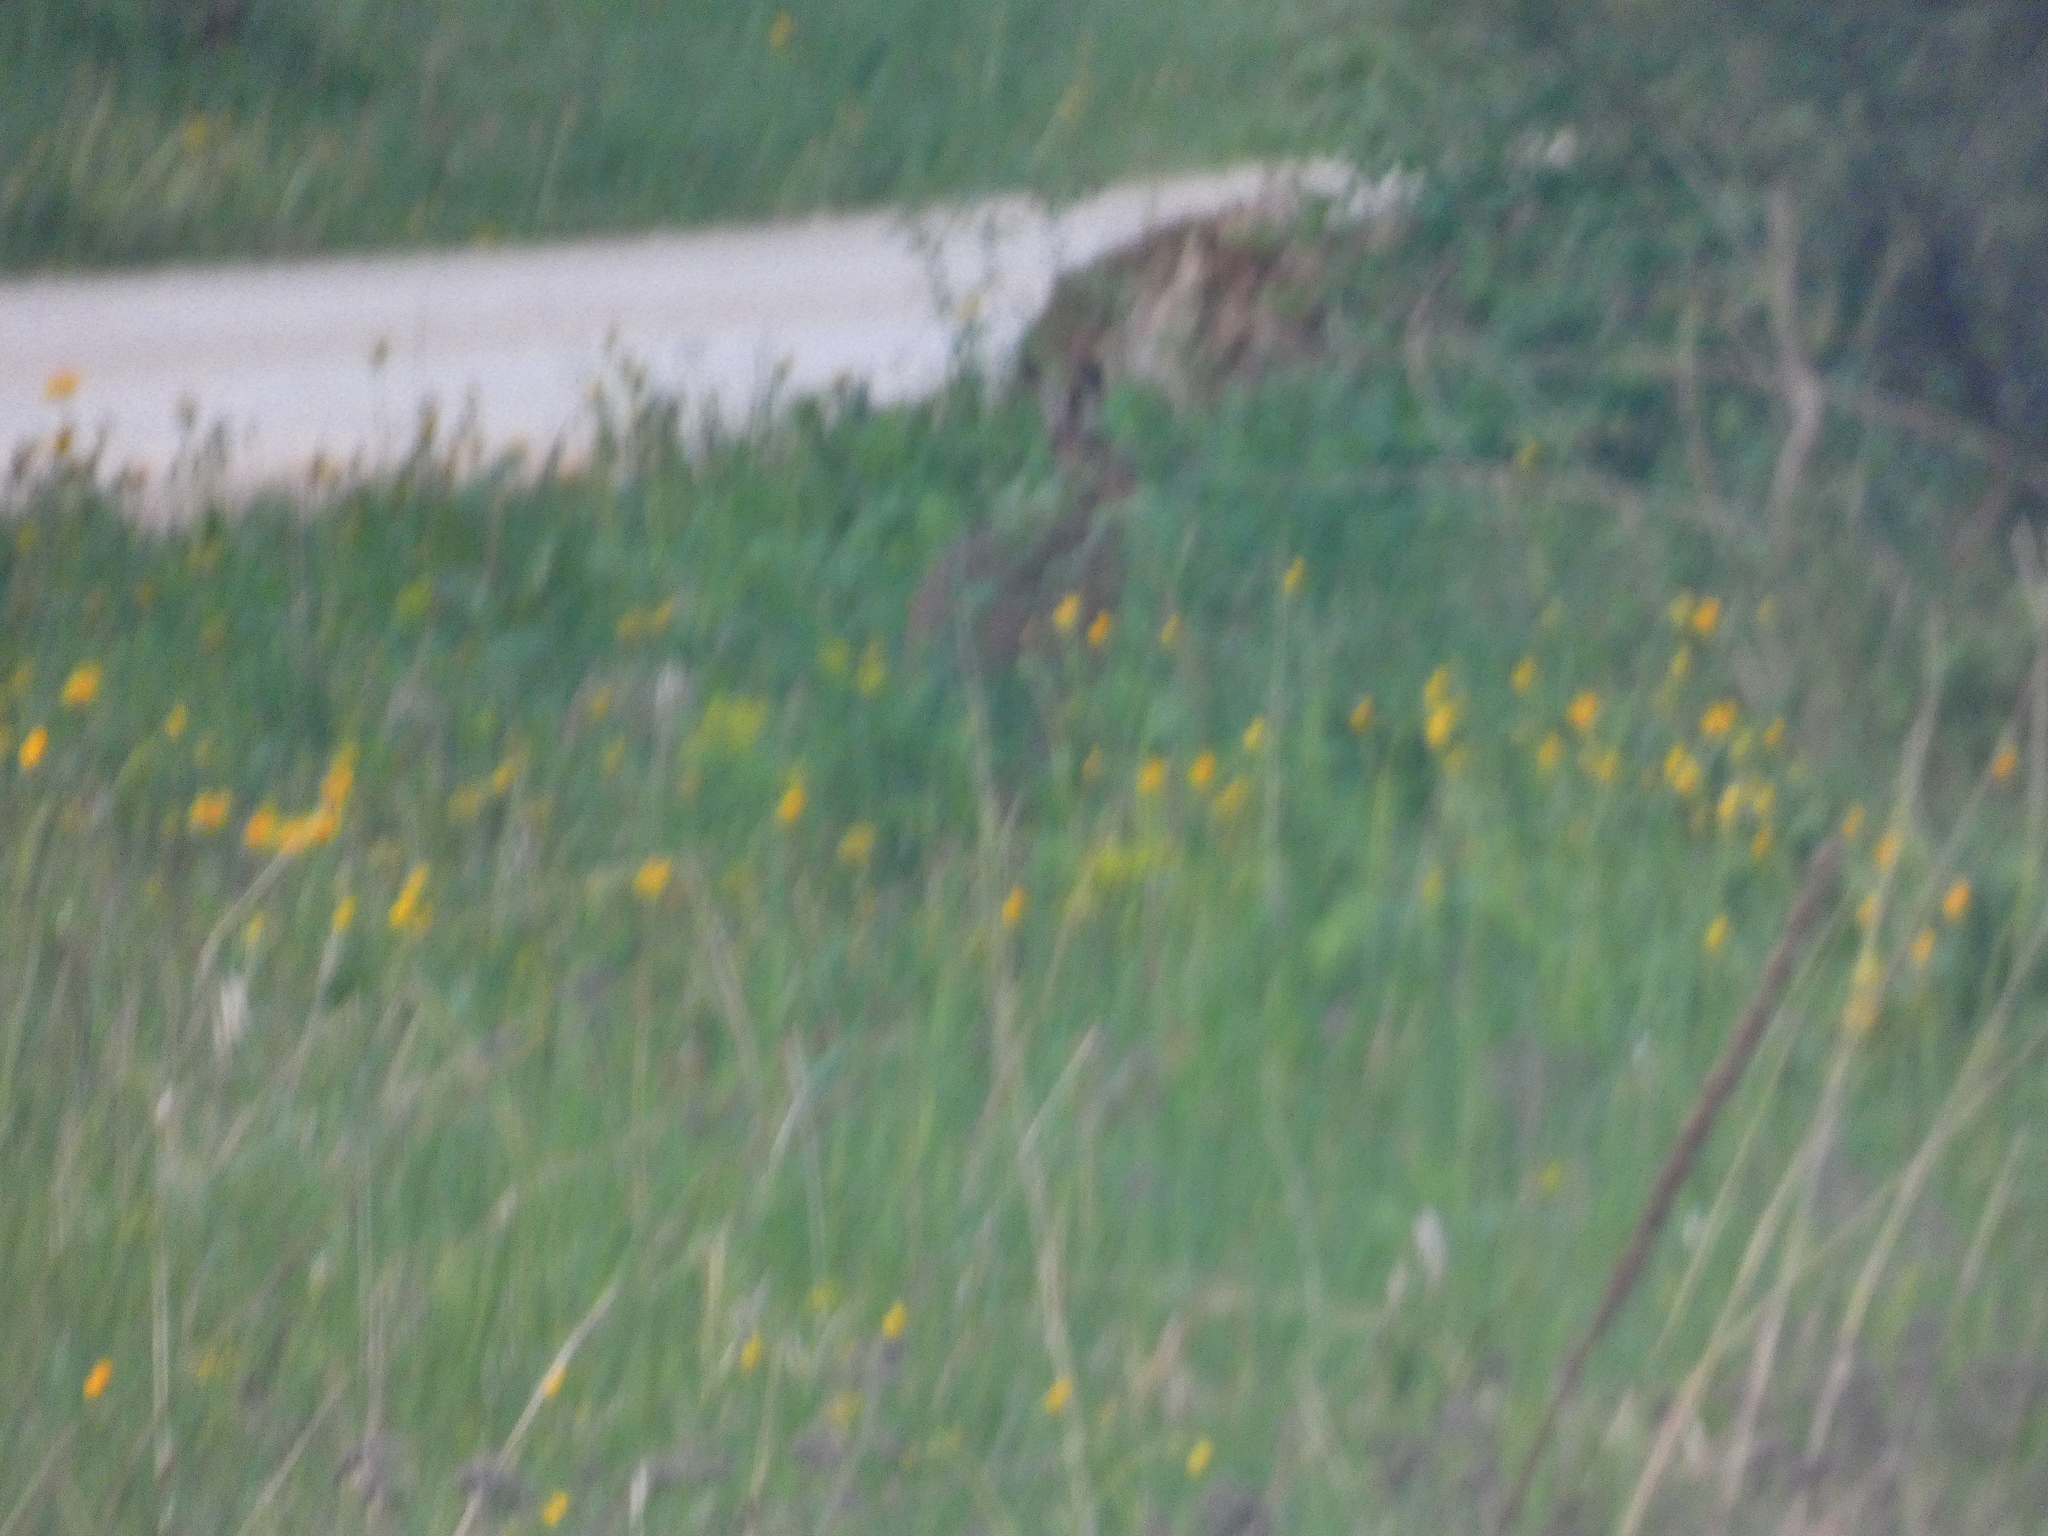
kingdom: Animalia
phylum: Chordata
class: Mammalia
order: Lagomorpha
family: Leporidae
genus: Lepus
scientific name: Lepus europaeus
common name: European hare
